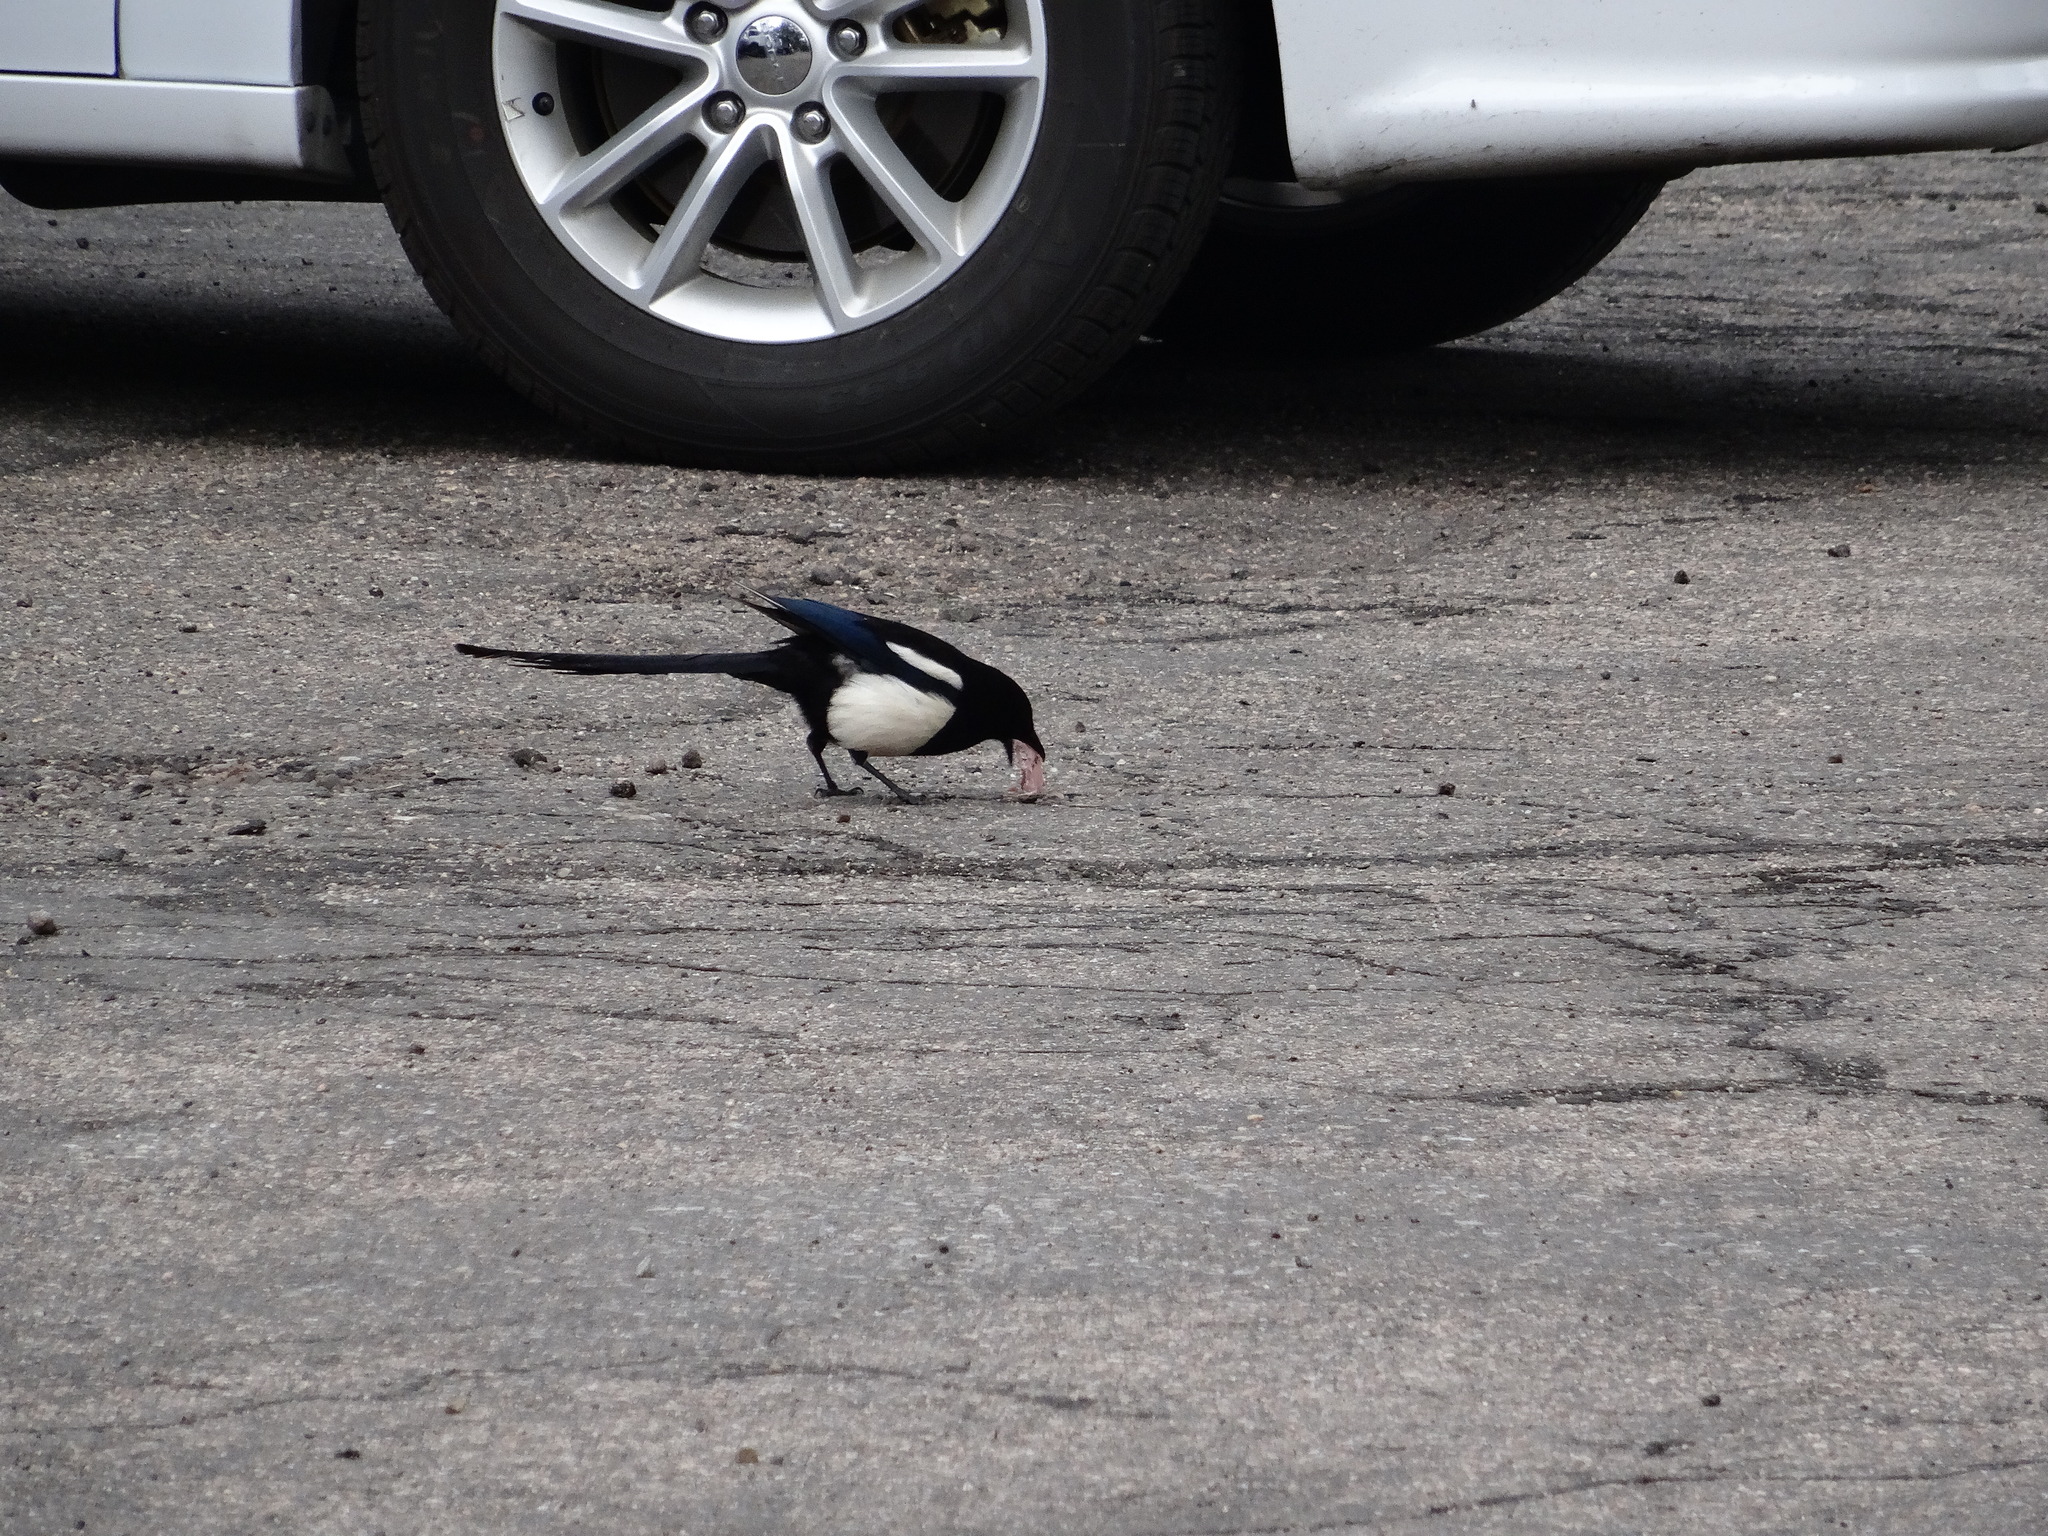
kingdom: Animalia
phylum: Chordata
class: Aves
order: Passeriformes
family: Corvidae
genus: Pica
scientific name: Pica hudsonia
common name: Black-billed magpie
